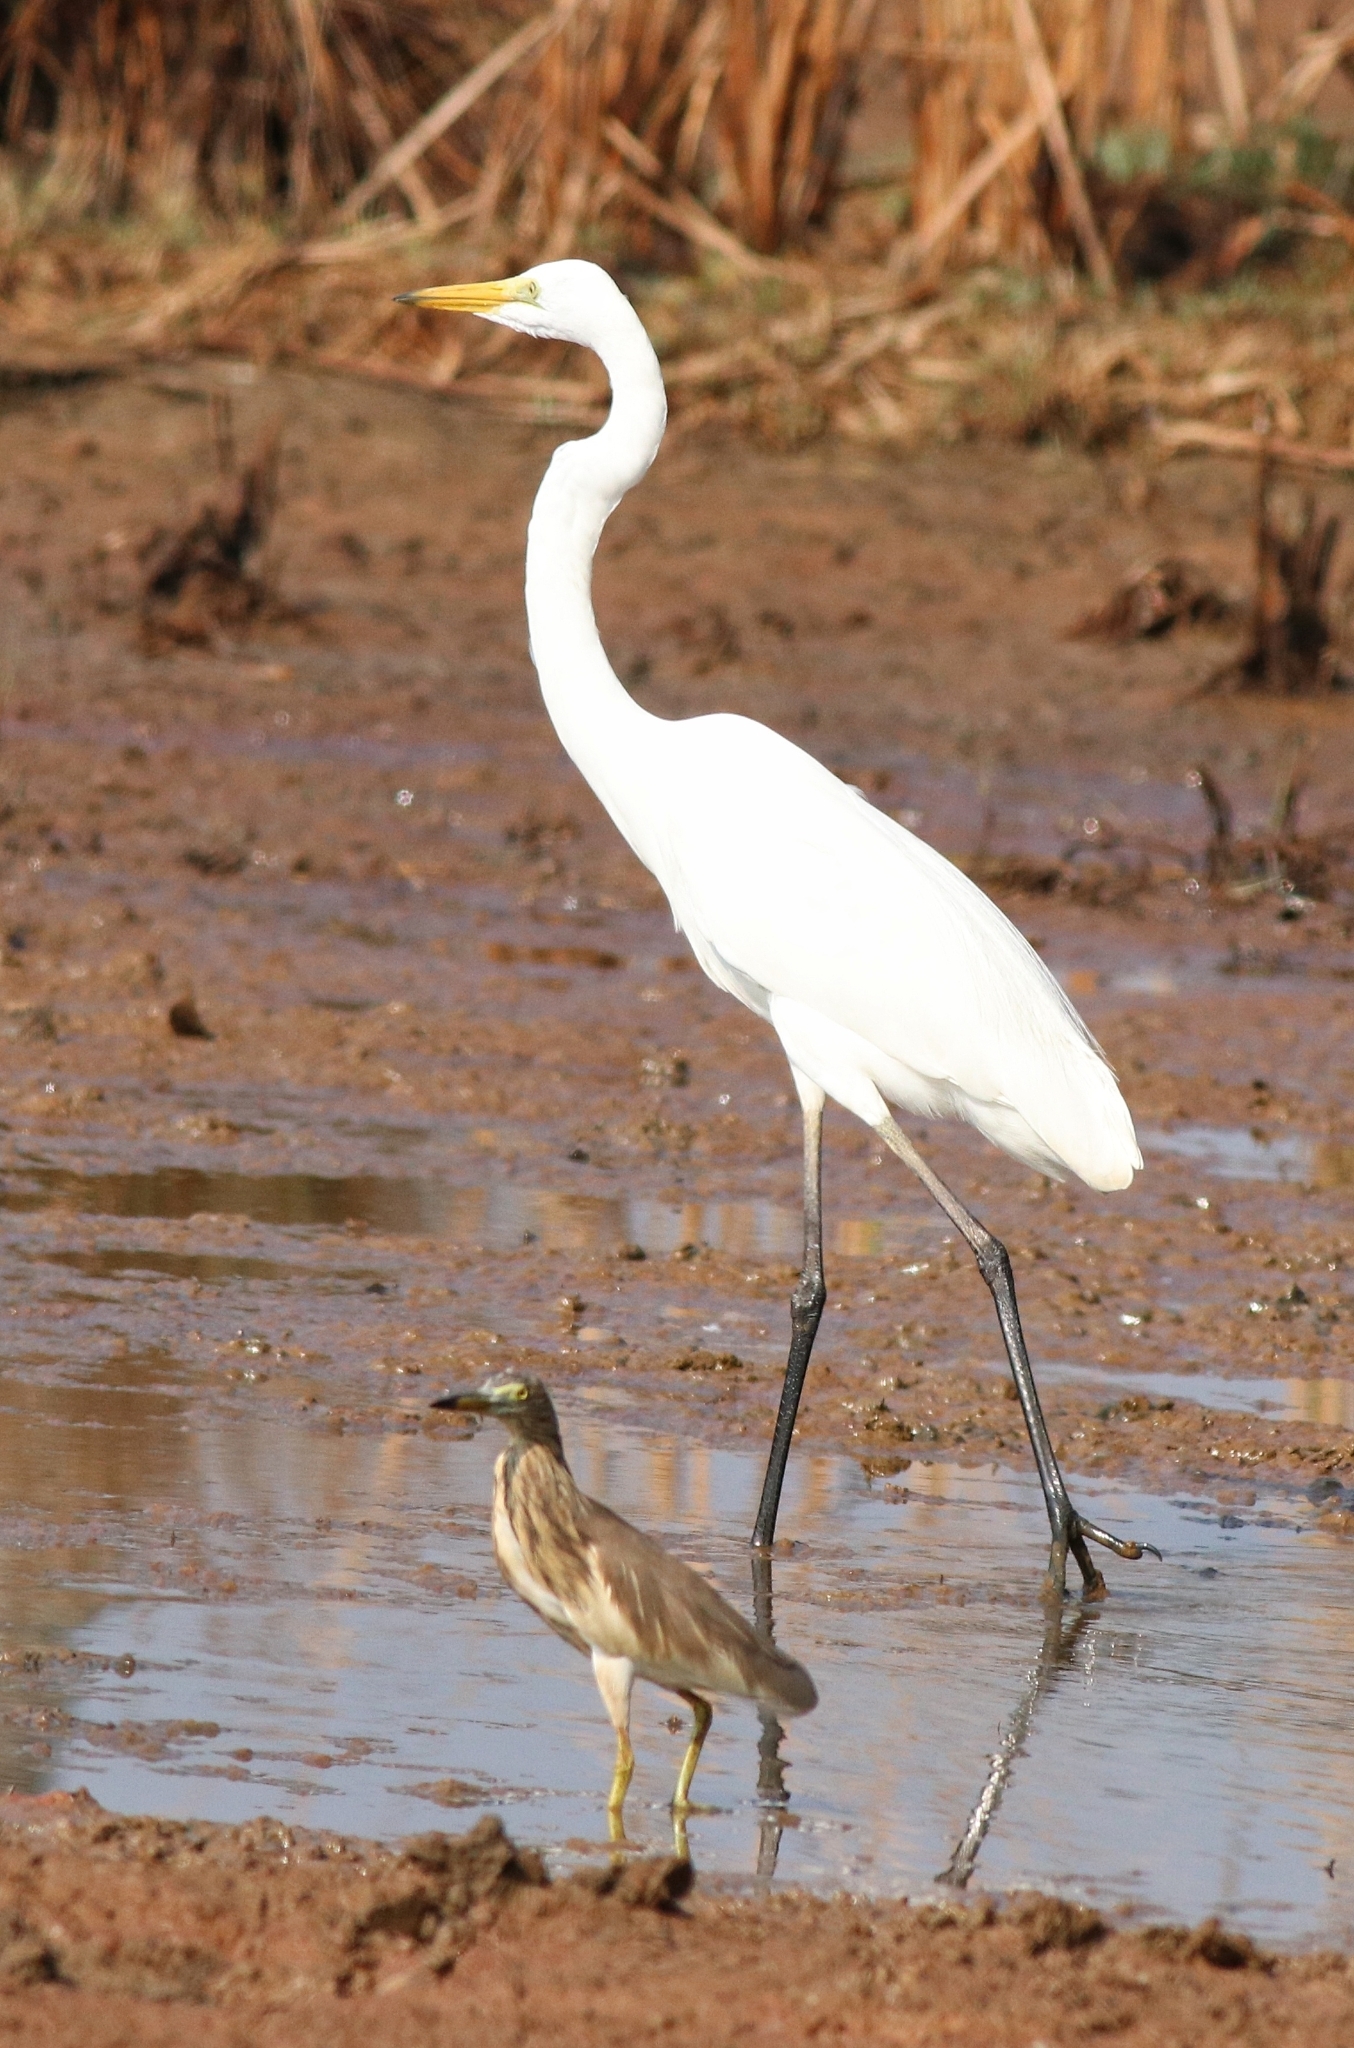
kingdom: Animalia
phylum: Chordata
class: Aves
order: Pelecaniformes
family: Ardeidae
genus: Ardea
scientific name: Ardea alba
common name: Great egret
